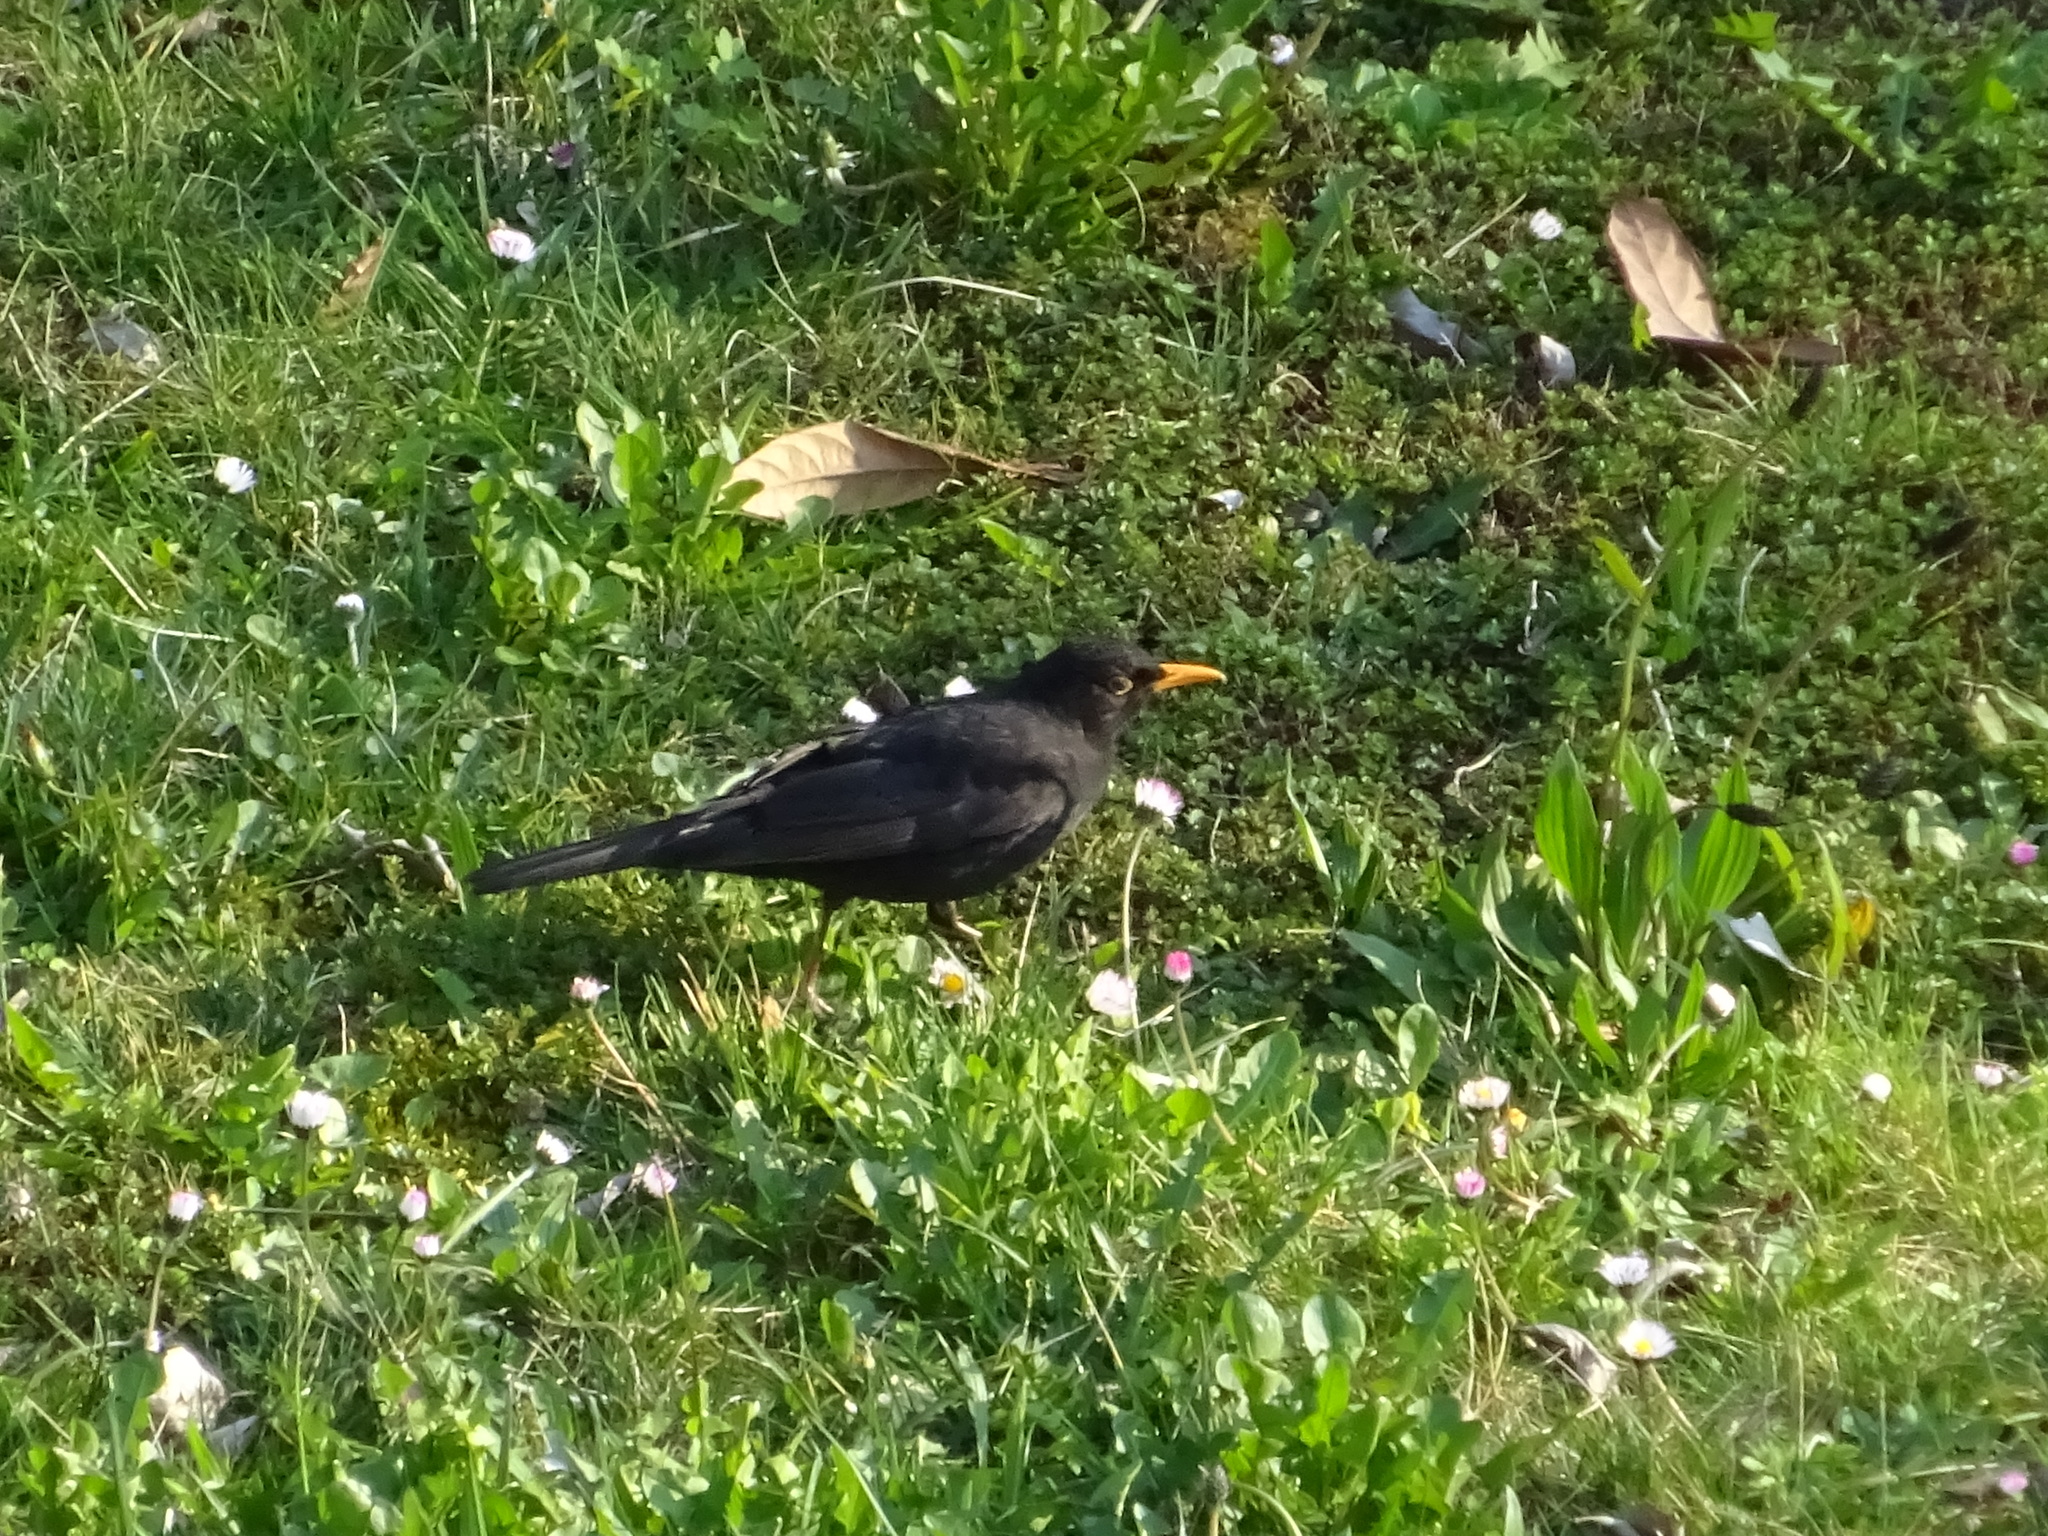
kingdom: Animalia
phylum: Chordata
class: Aves
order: Passeriformes
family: Turdidae
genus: Turdus
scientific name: Turdus merula
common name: Common blackbird
